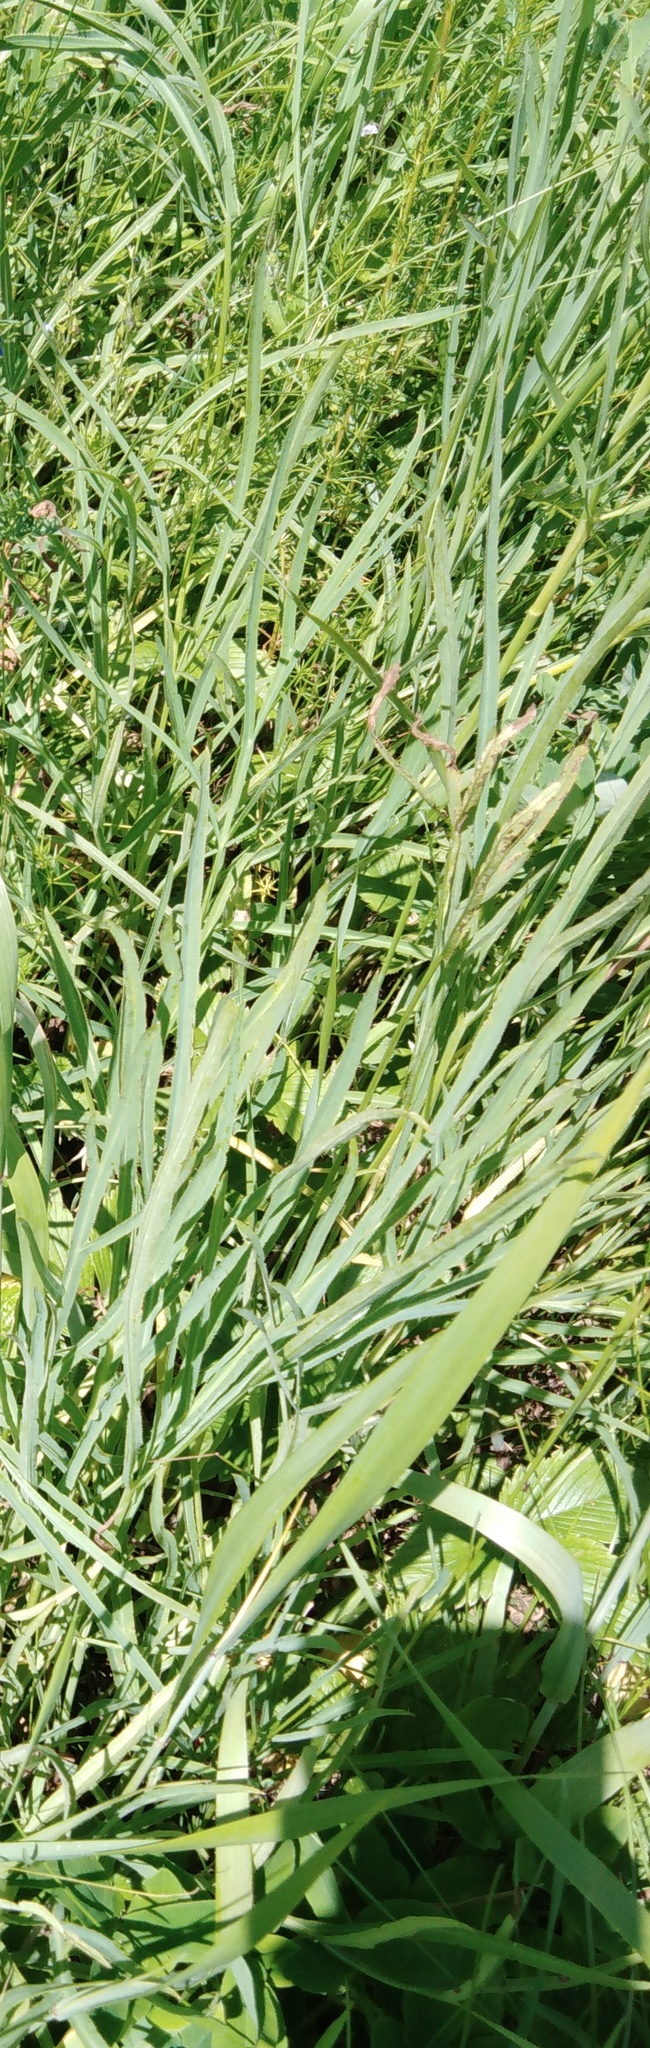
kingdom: Plantae
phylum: Tracheophyta
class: Magnoliopsida
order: Apiales
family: Apiaceae
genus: Falcaria
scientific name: Falcaria vulgaris
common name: Longleaf
